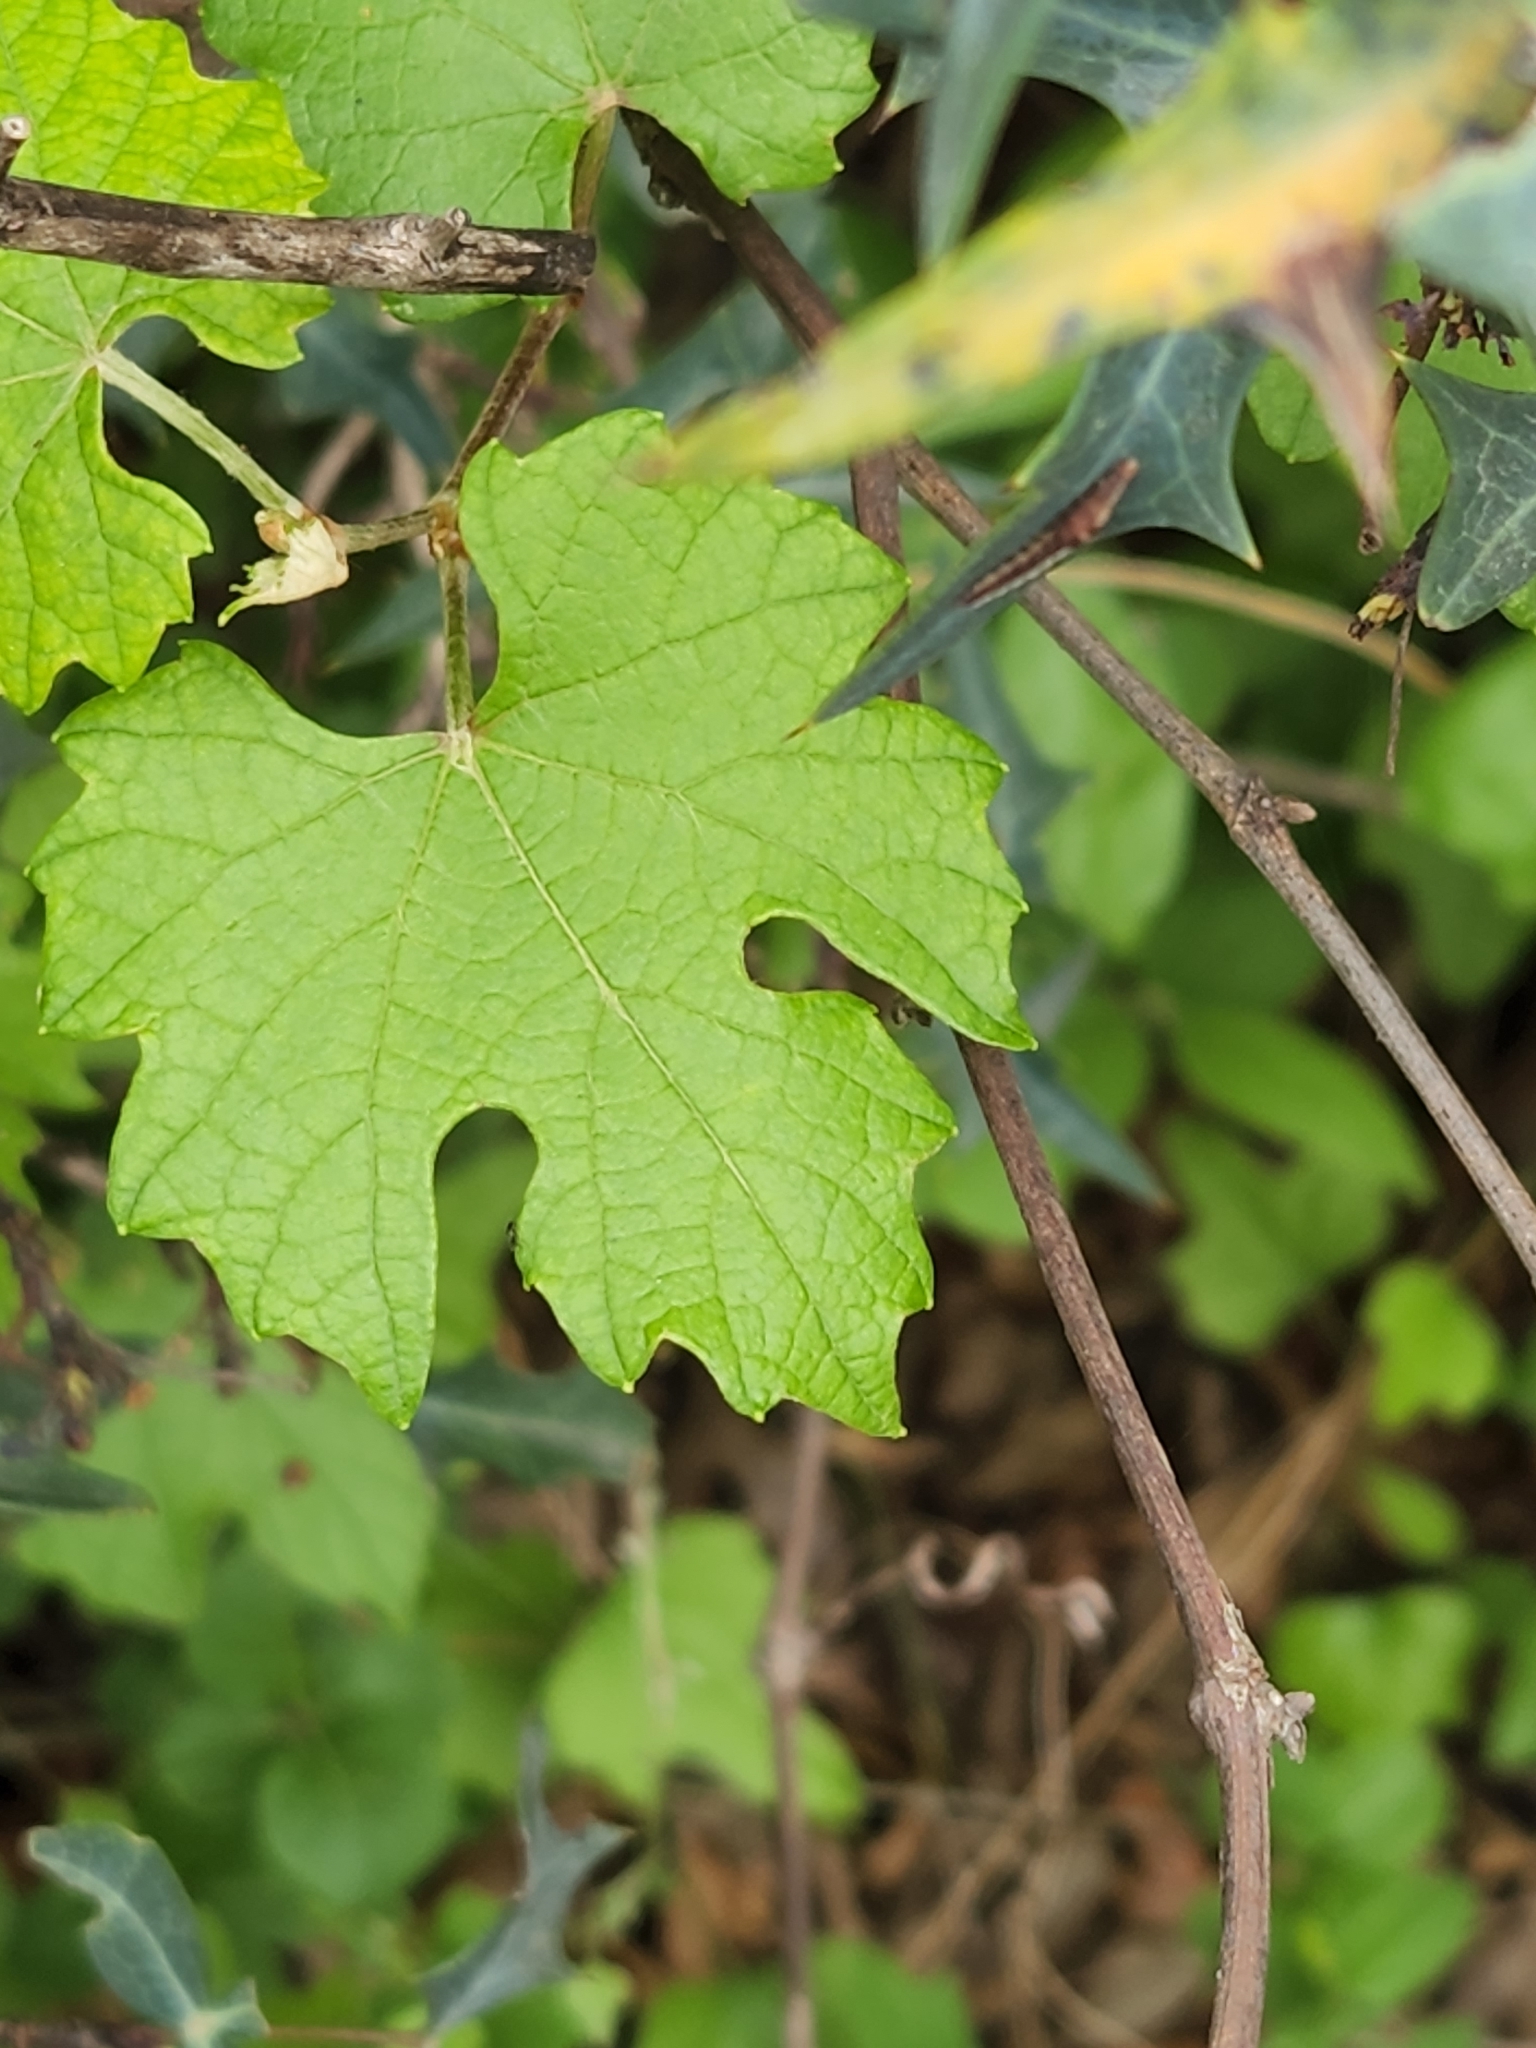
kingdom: Plantae
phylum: Tracheophyta
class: Magnoliopsida
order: Vitales
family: Vitaceae
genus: Vitis
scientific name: Vitis mustangensis
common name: Mustang grape
